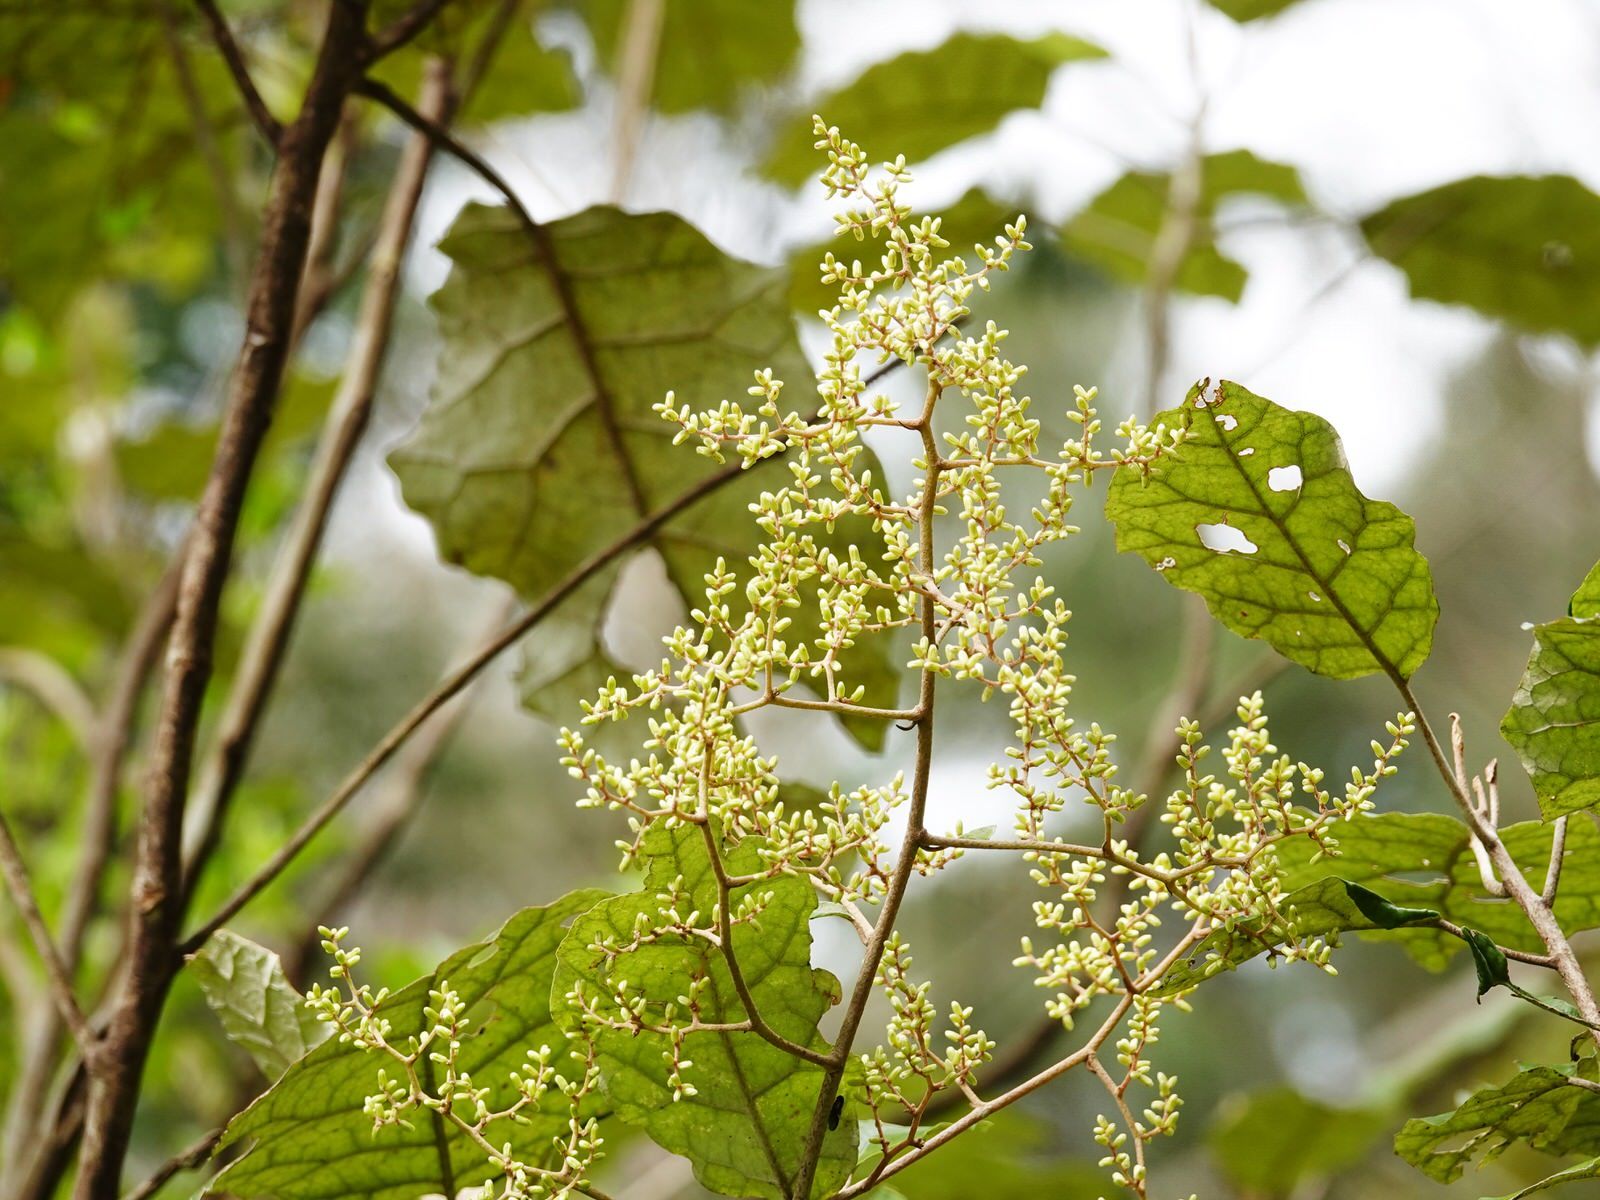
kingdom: Plantae
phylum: Tracheophyta
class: Magnoliopsida
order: Asterales
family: Asteraceae
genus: Brachyglottis
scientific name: Brachyglottis repanda
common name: Hedge ragwort
